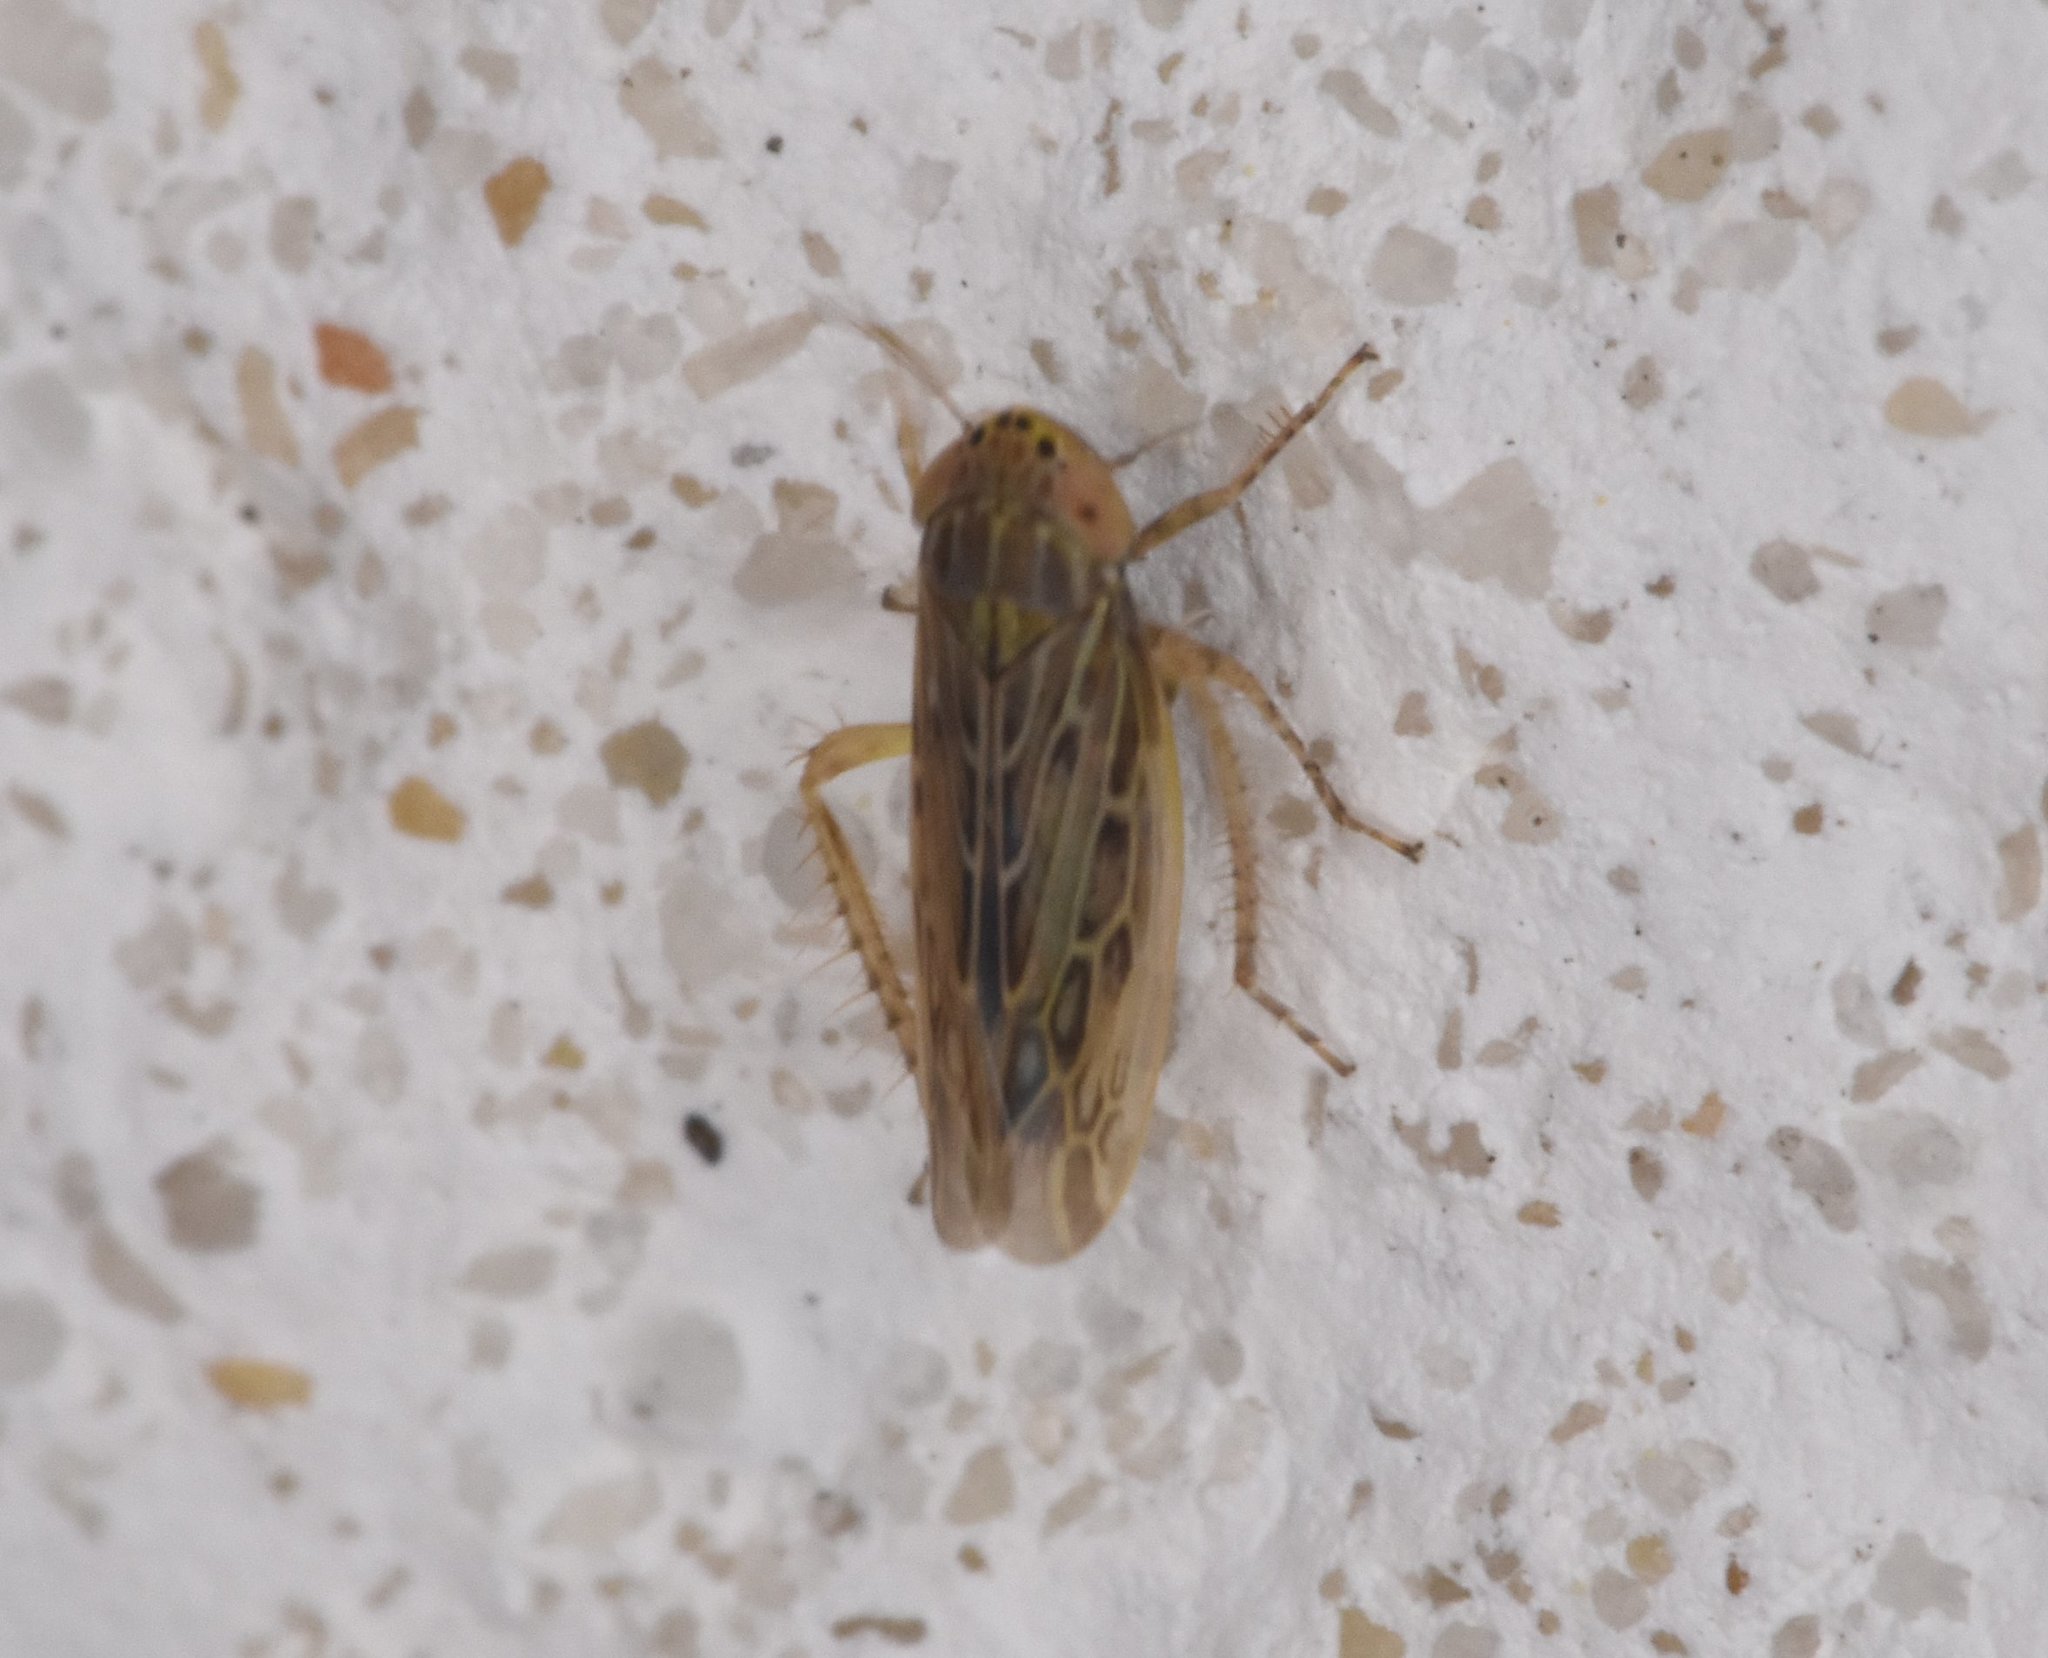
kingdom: Animalia
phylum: Arthropoda
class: Insecta
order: Hemiptera
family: Cicadellidae
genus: Graminella
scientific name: Graminella sonora
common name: Lesser lawn leafhopper
